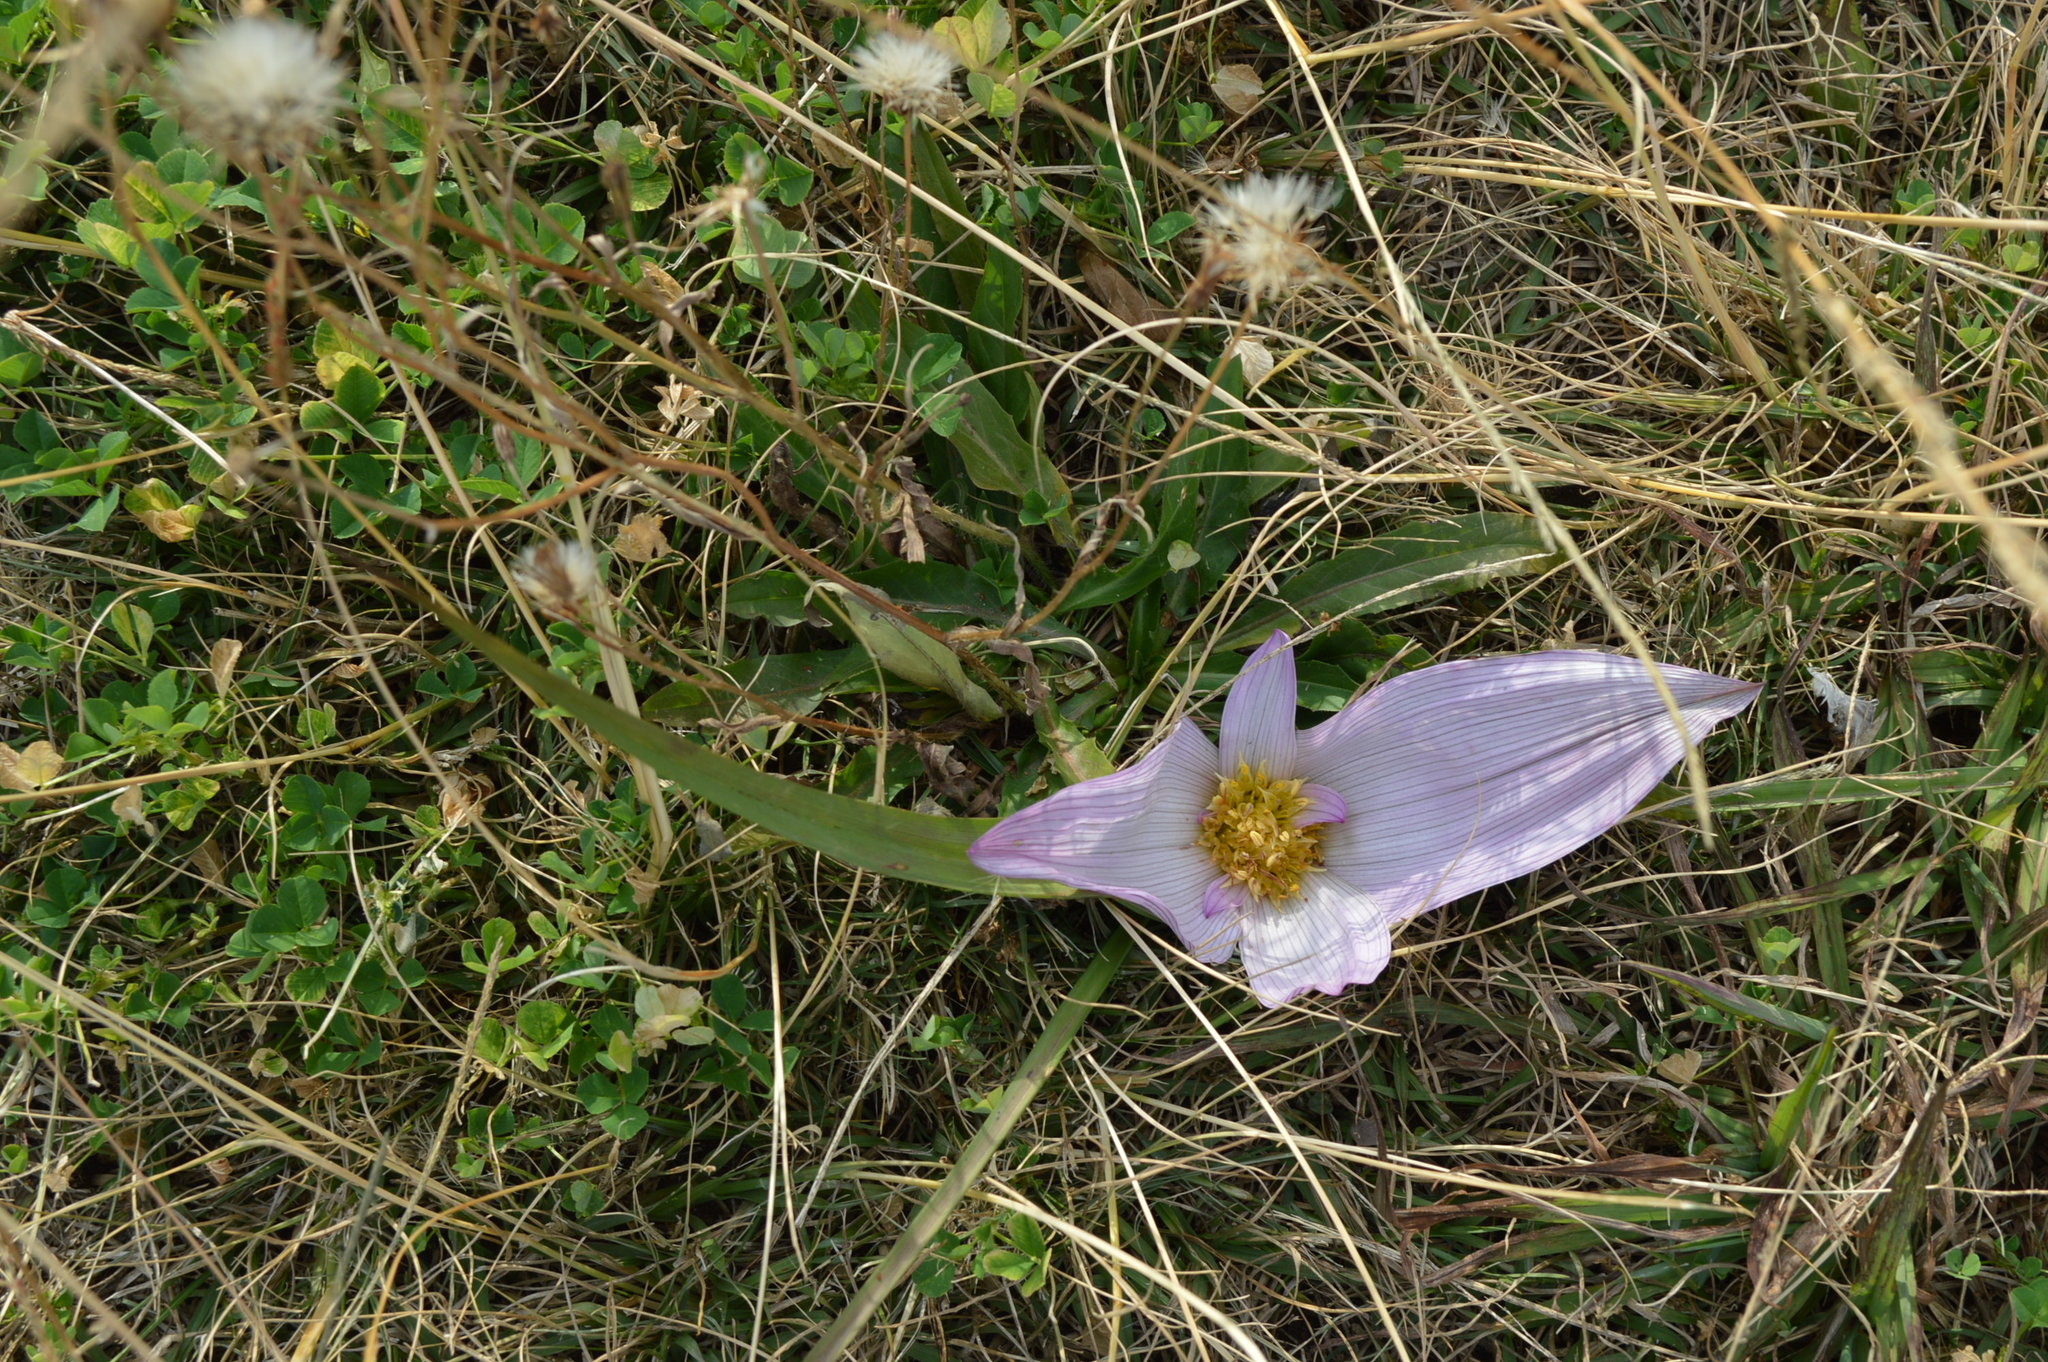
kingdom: Plantae
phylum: Tracheophyta
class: Liliopsida
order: Liliales
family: Colchicaceae
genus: Colchicum
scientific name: Colchicum melanthioides
